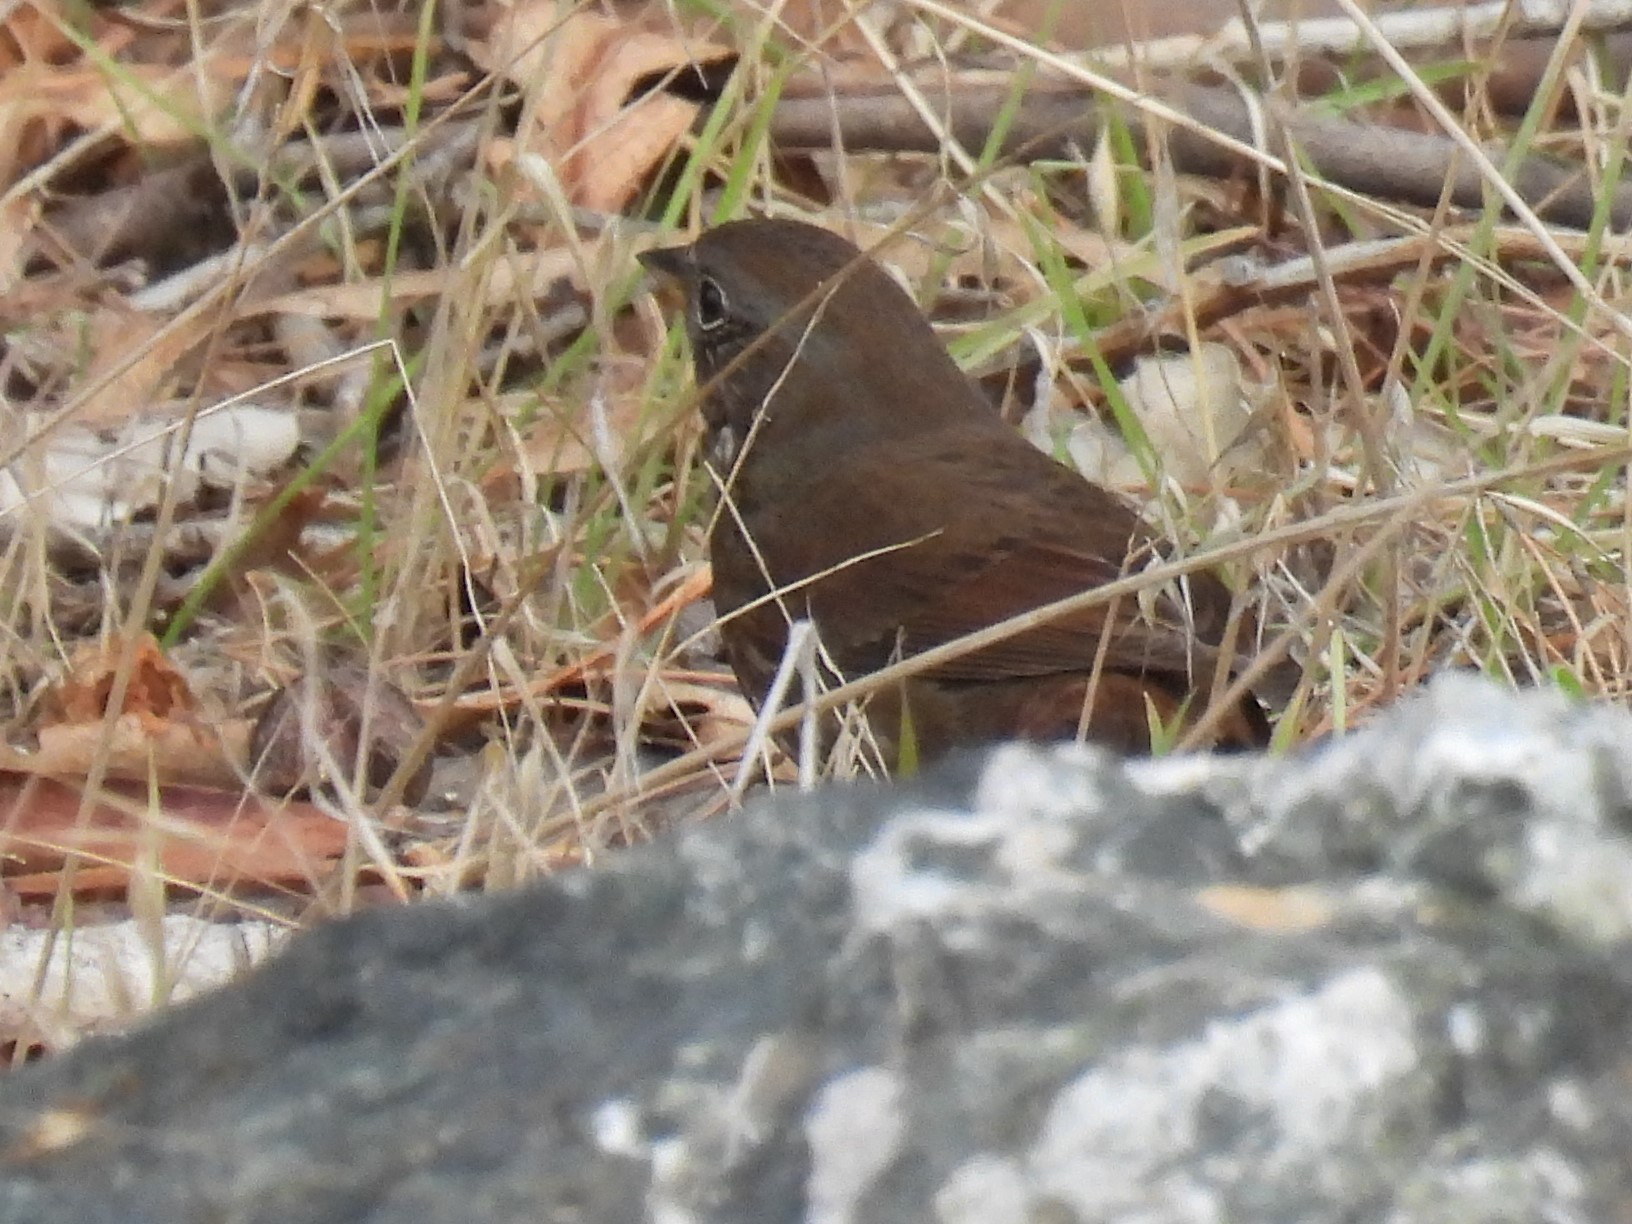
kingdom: Animalia
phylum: Chordata
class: Aves
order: Passeriformes
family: Passerellidae
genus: Passerella
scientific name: Passerella iliaca
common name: Fox sparrow
